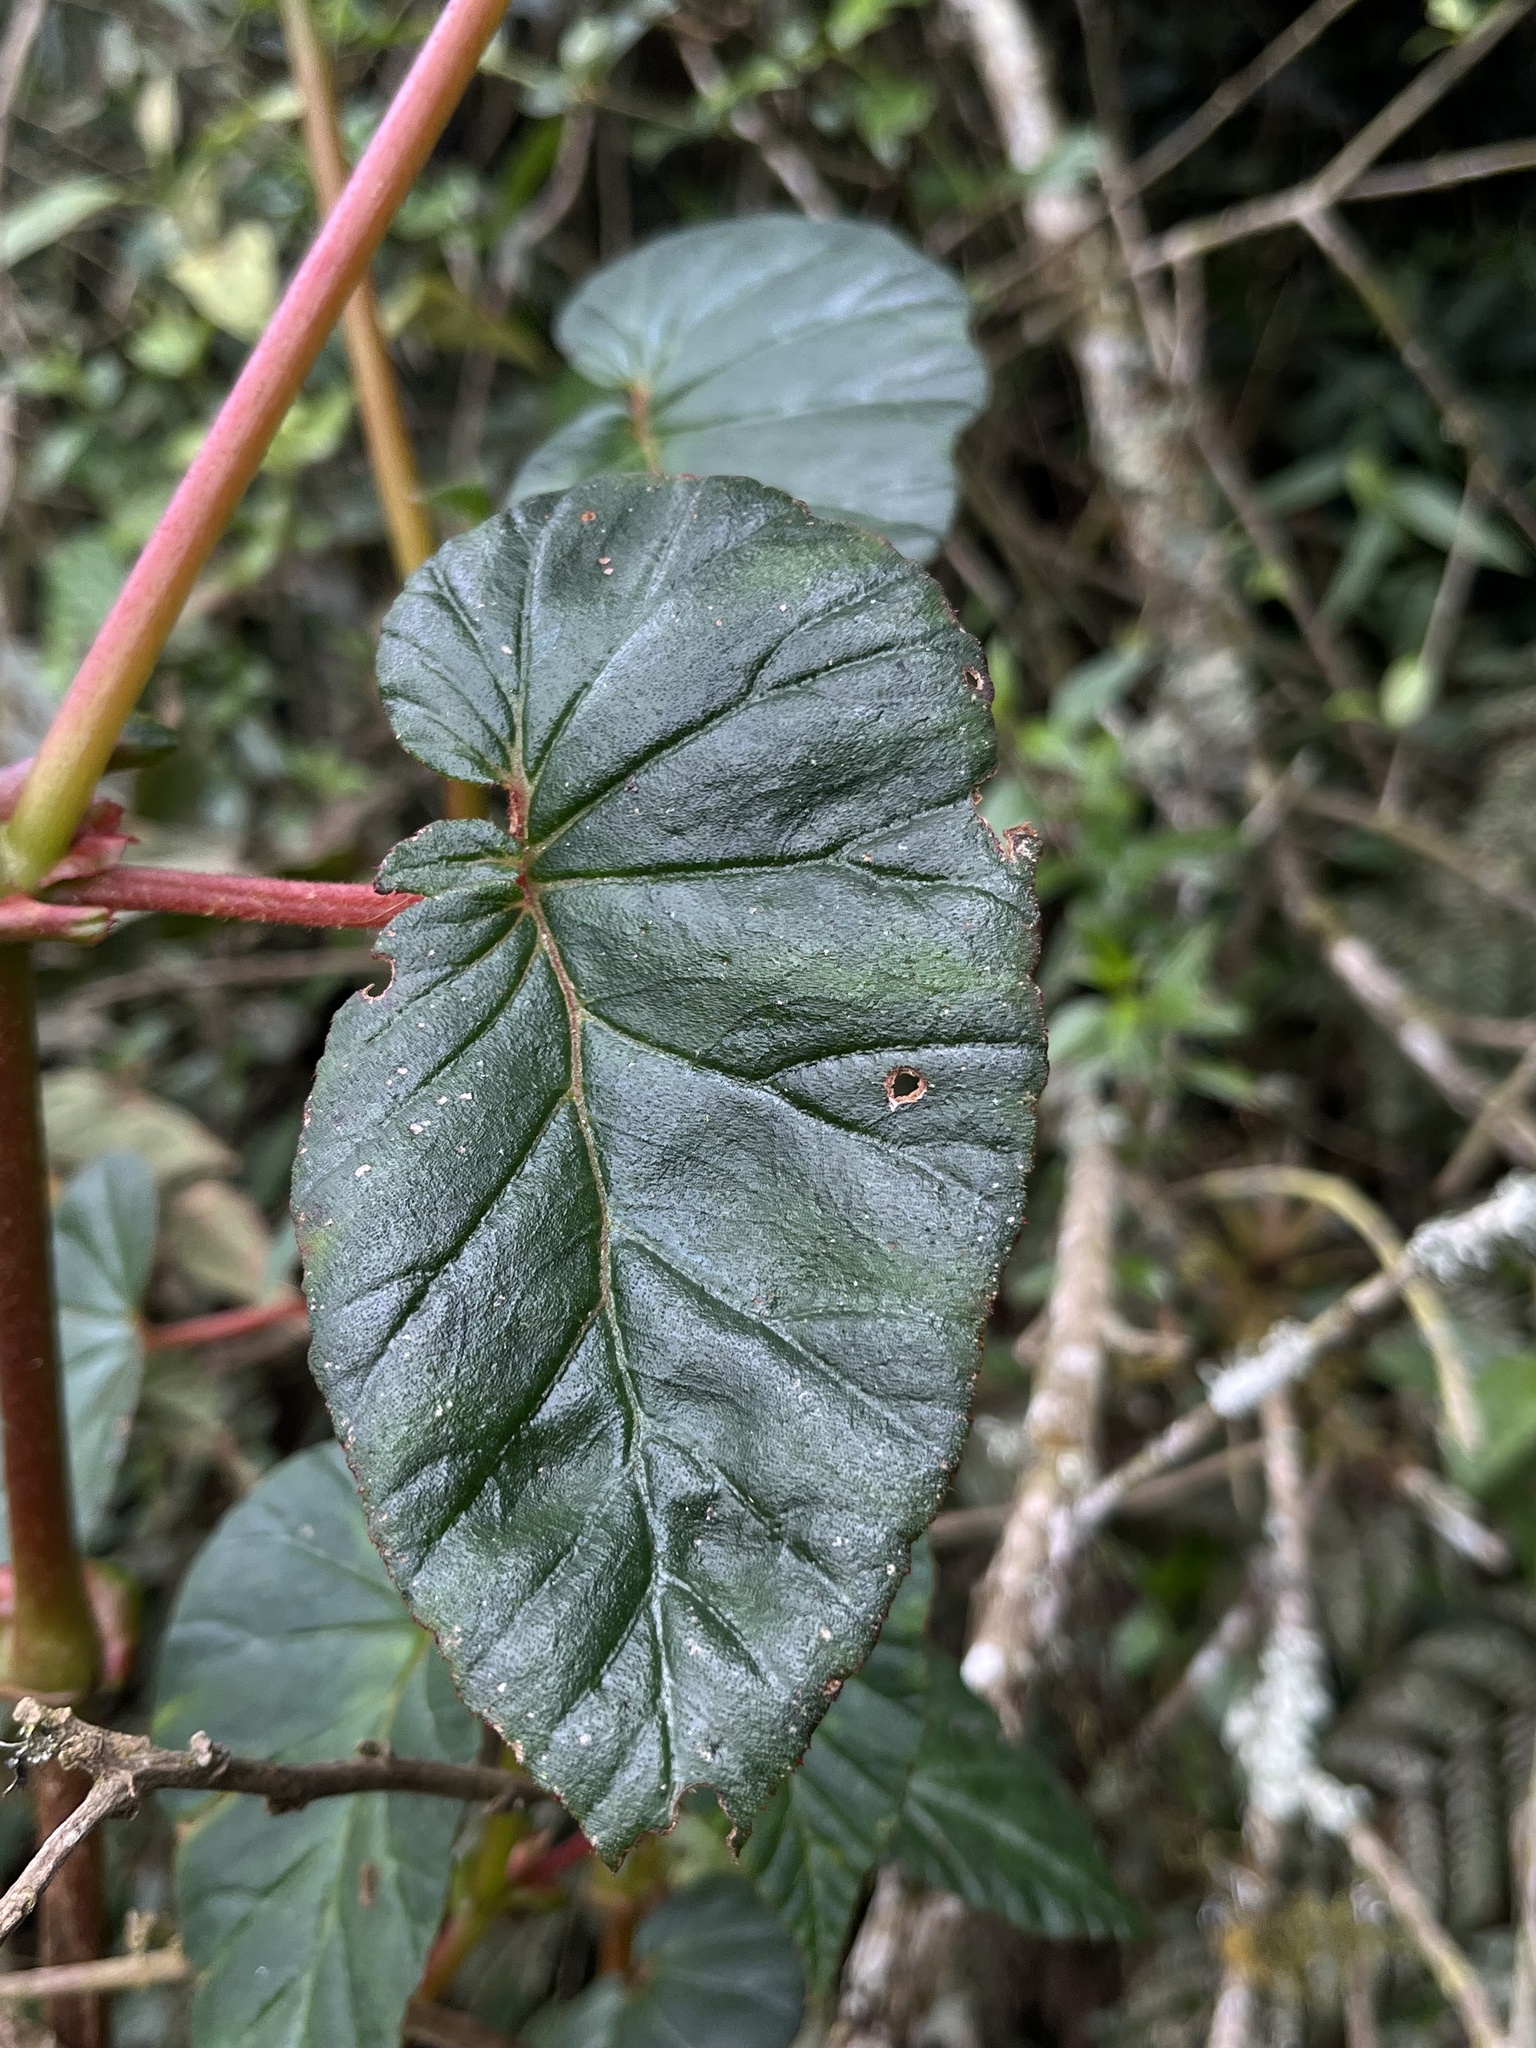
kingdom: Plantae
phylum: Tracheophyta
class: Magnoliopsida
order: Cucurbitales
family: Begoniaceae
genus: Begonia
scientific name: Begonia ferruginea
